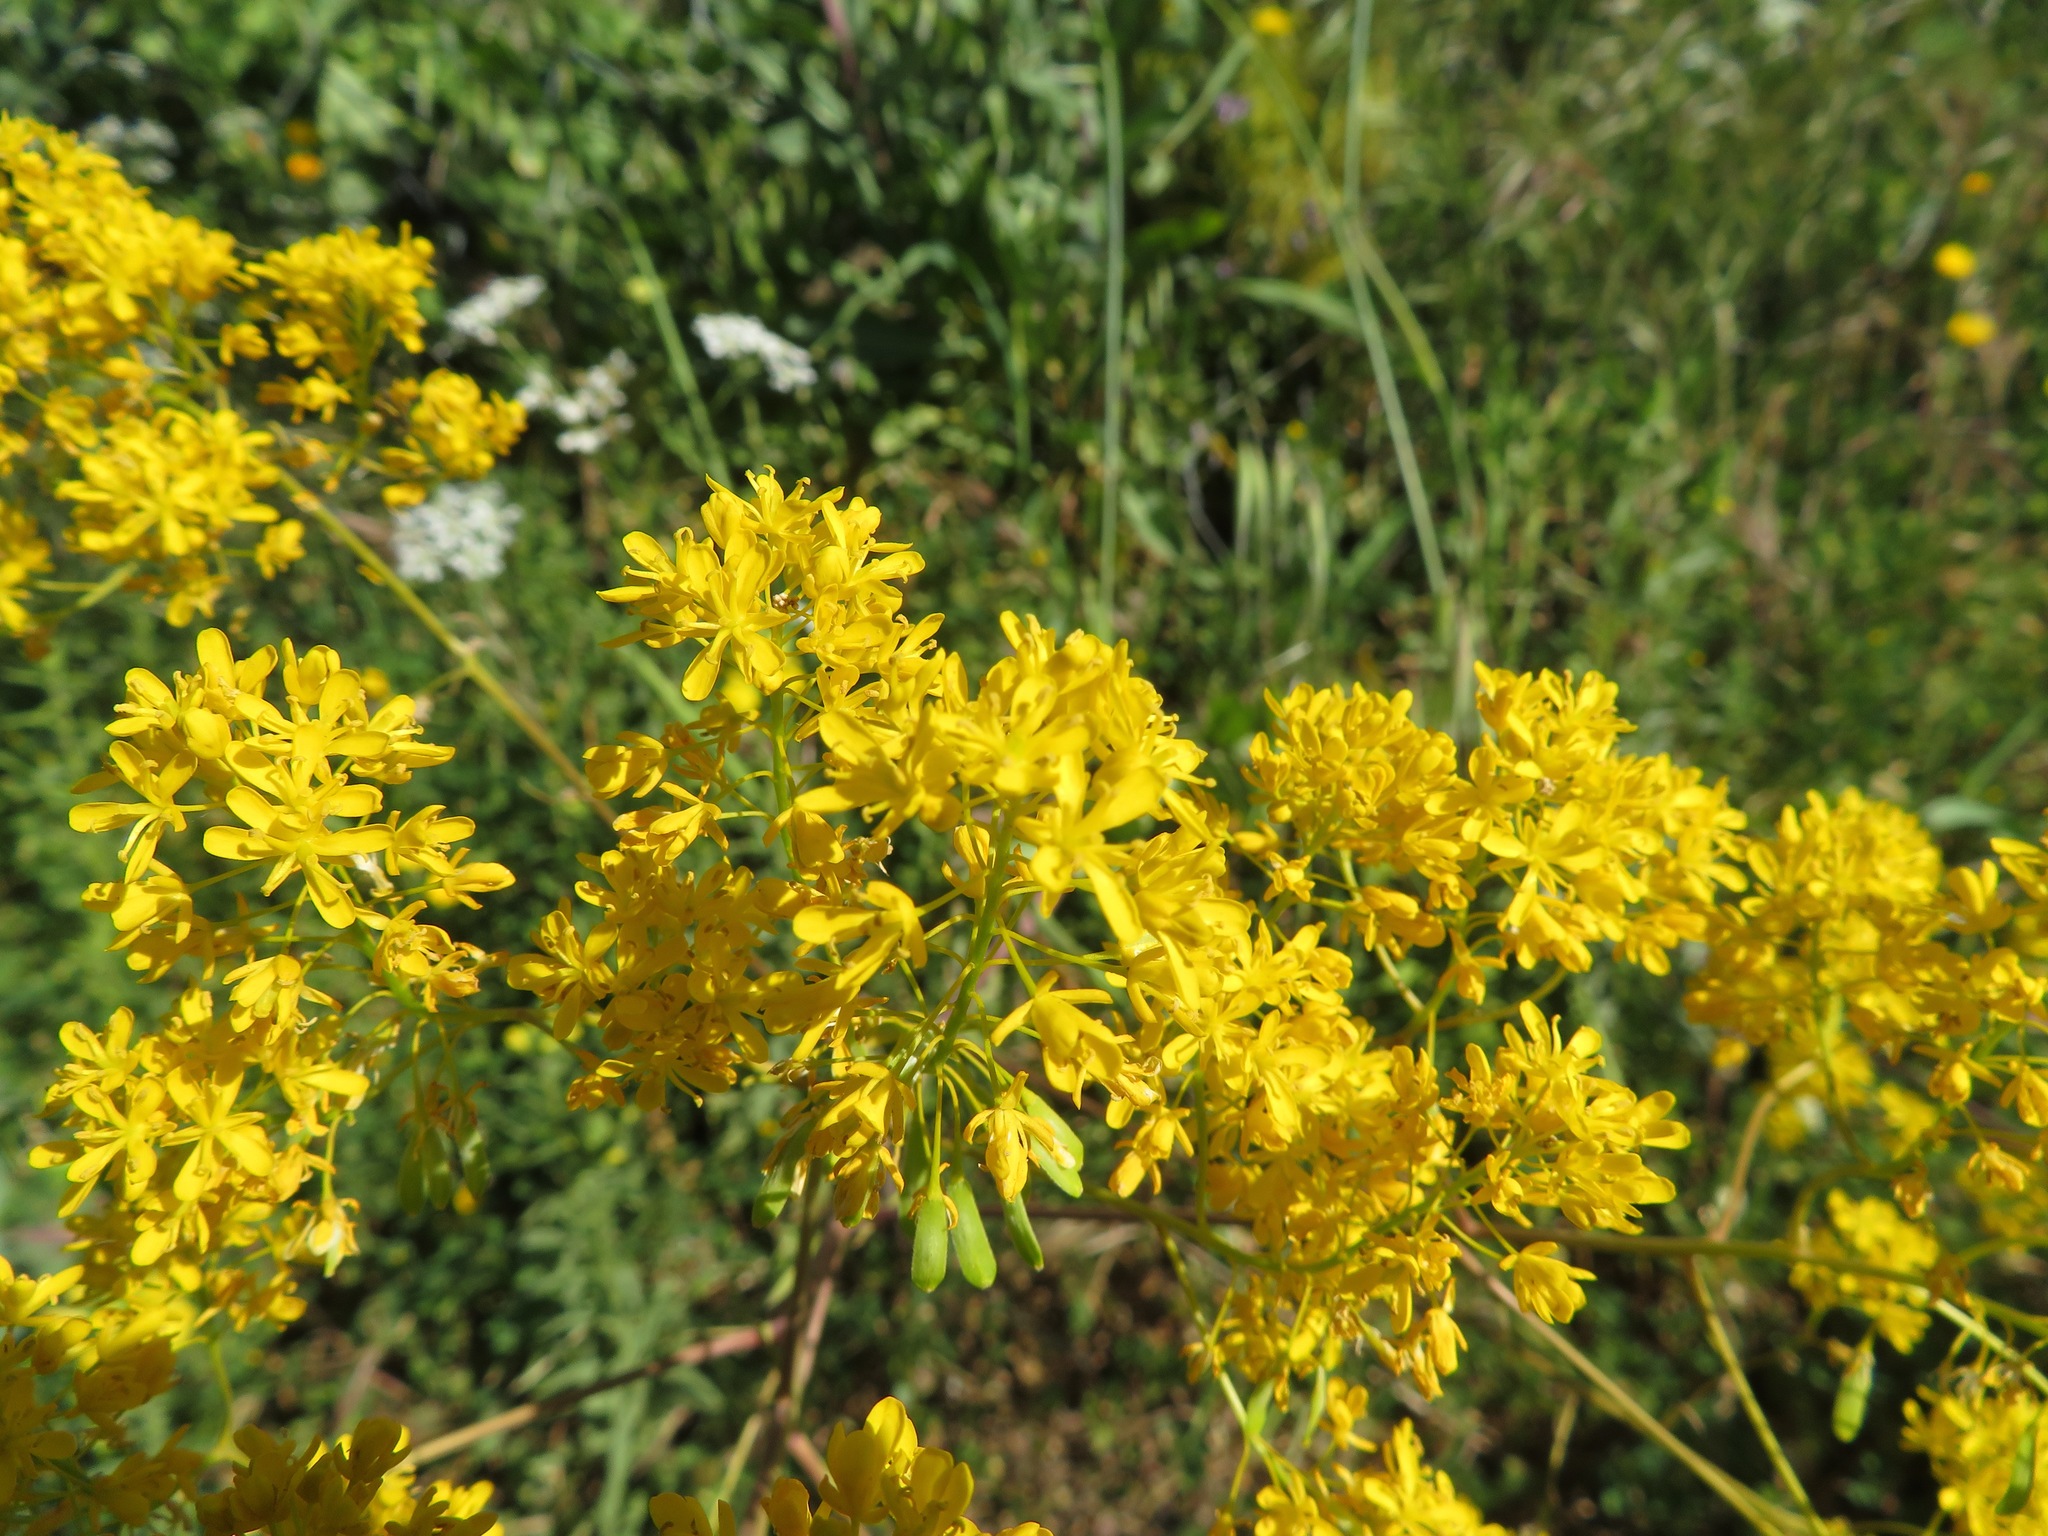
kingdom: Plantae
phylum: Tracheophyta
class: Magnoliopsida
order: Brassicales
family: Brassicaceae
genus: Isatis
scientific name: Isatis tinctoria
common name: Woad
